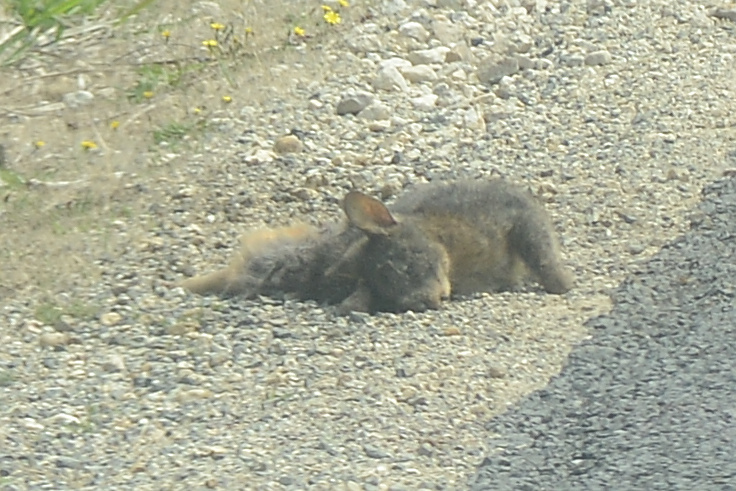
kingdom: Animalia
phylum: Chordata
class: Mammalia
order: Diprotodontia
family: Phalangeridae
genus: Trichosurus
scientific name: Trichosurus vulpecula
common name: Common brushtail
